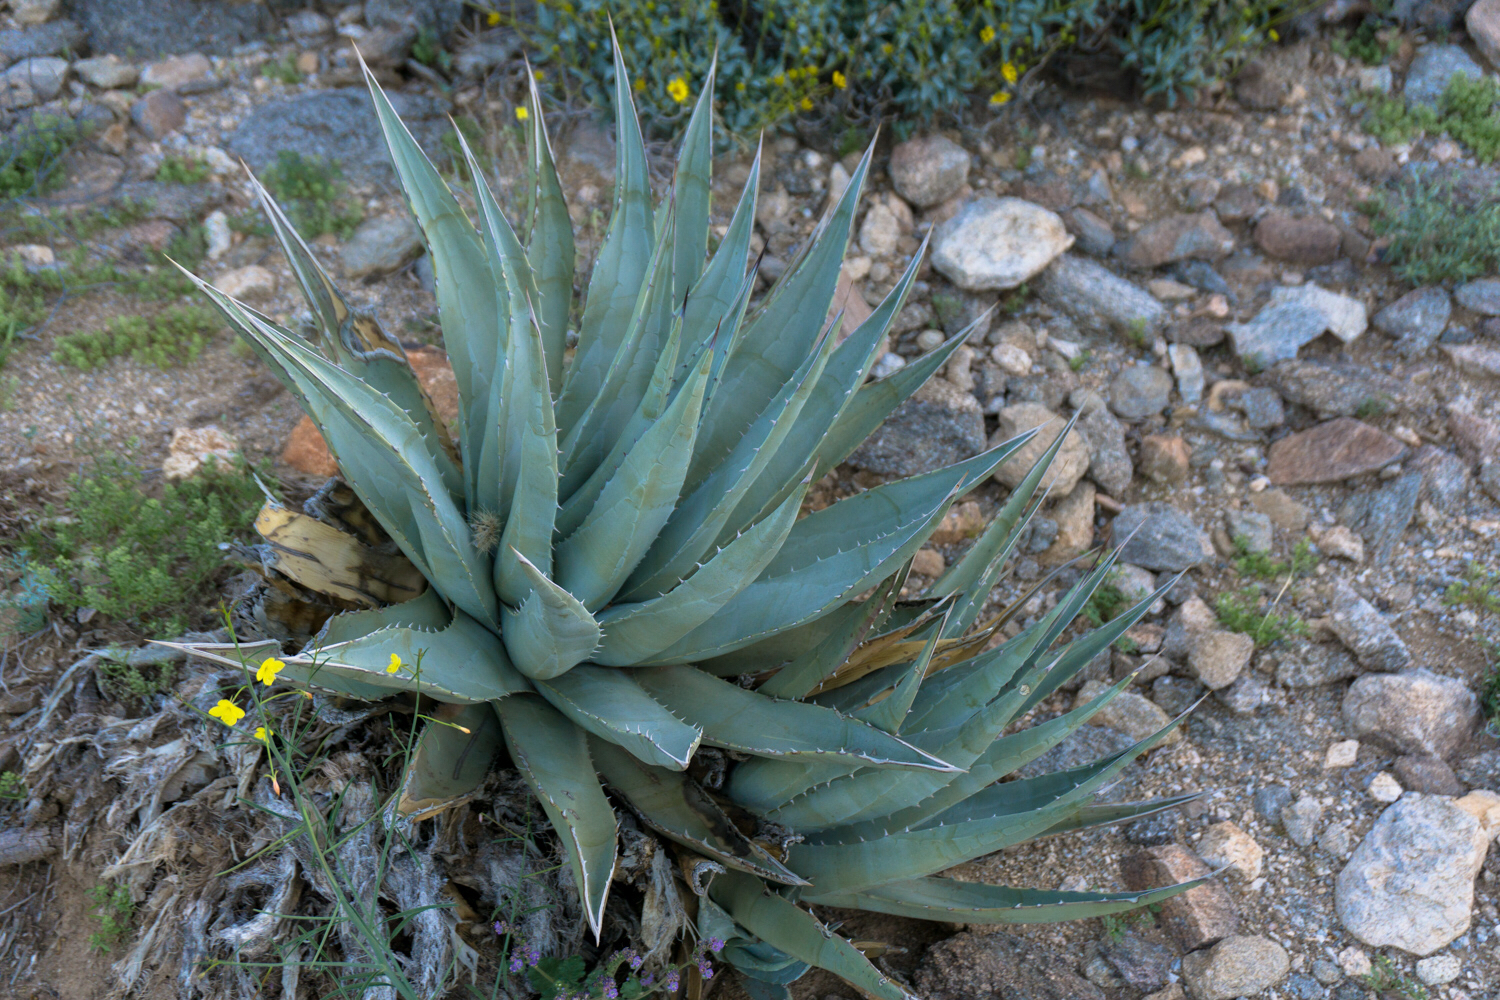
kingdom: Plantae
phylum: Tracheophyta
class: Liliopsida
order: Asparagales
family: Asparagaceae
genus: Agave
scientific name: Agave deserti
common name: Desert agave
